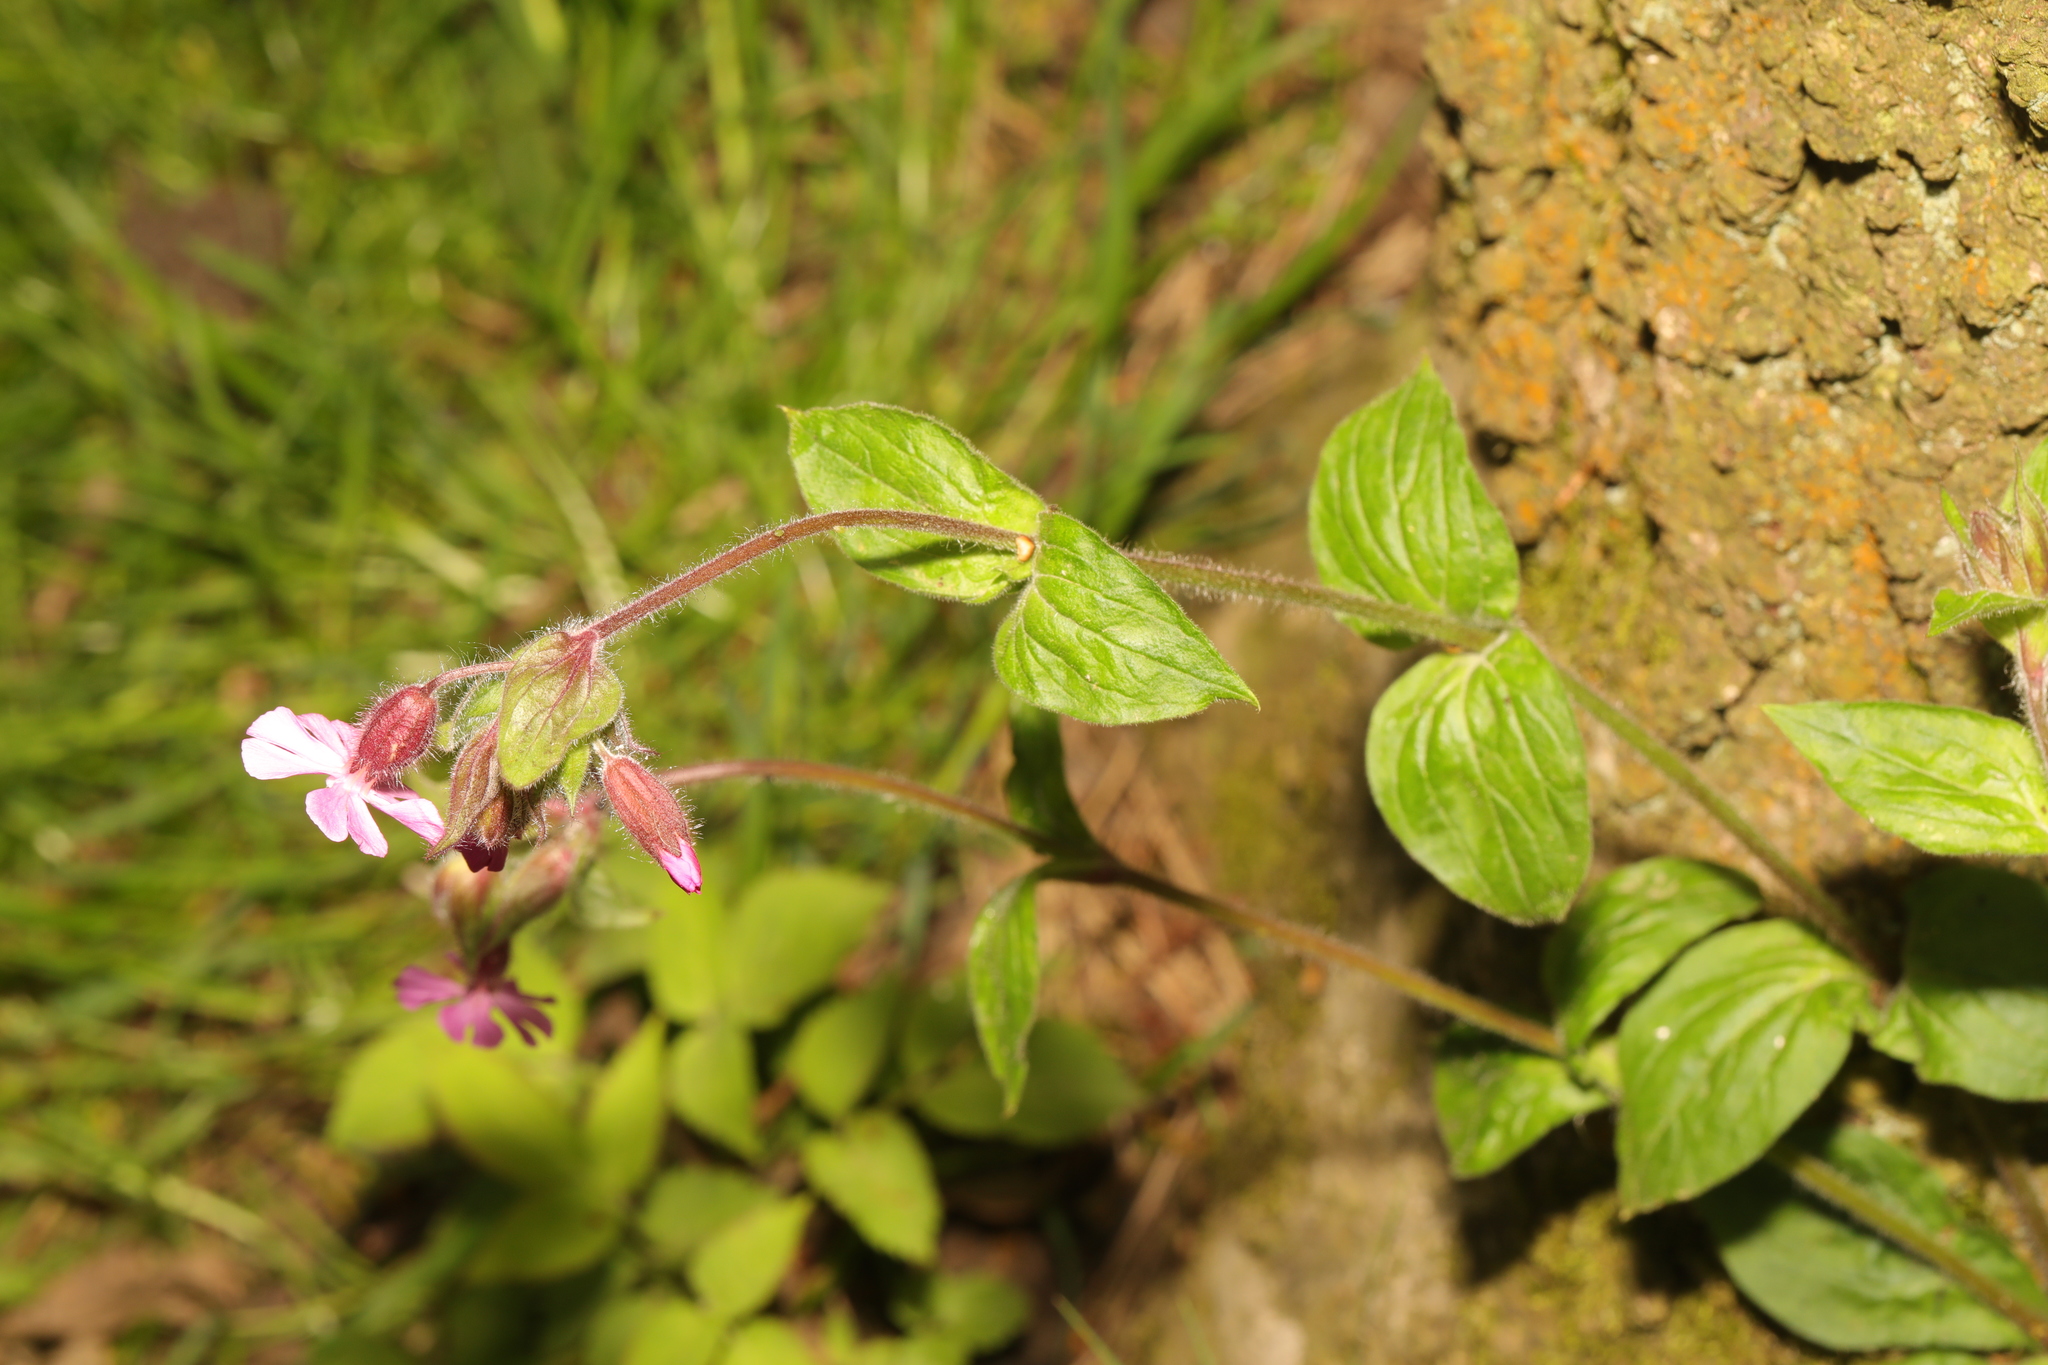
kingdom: Plantae
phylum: Tracheophyta
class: Magnoliopsida
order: Caryophyllales
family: Caryophyllaceae
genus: Silene
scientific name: Silene dioica
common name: Red campion
